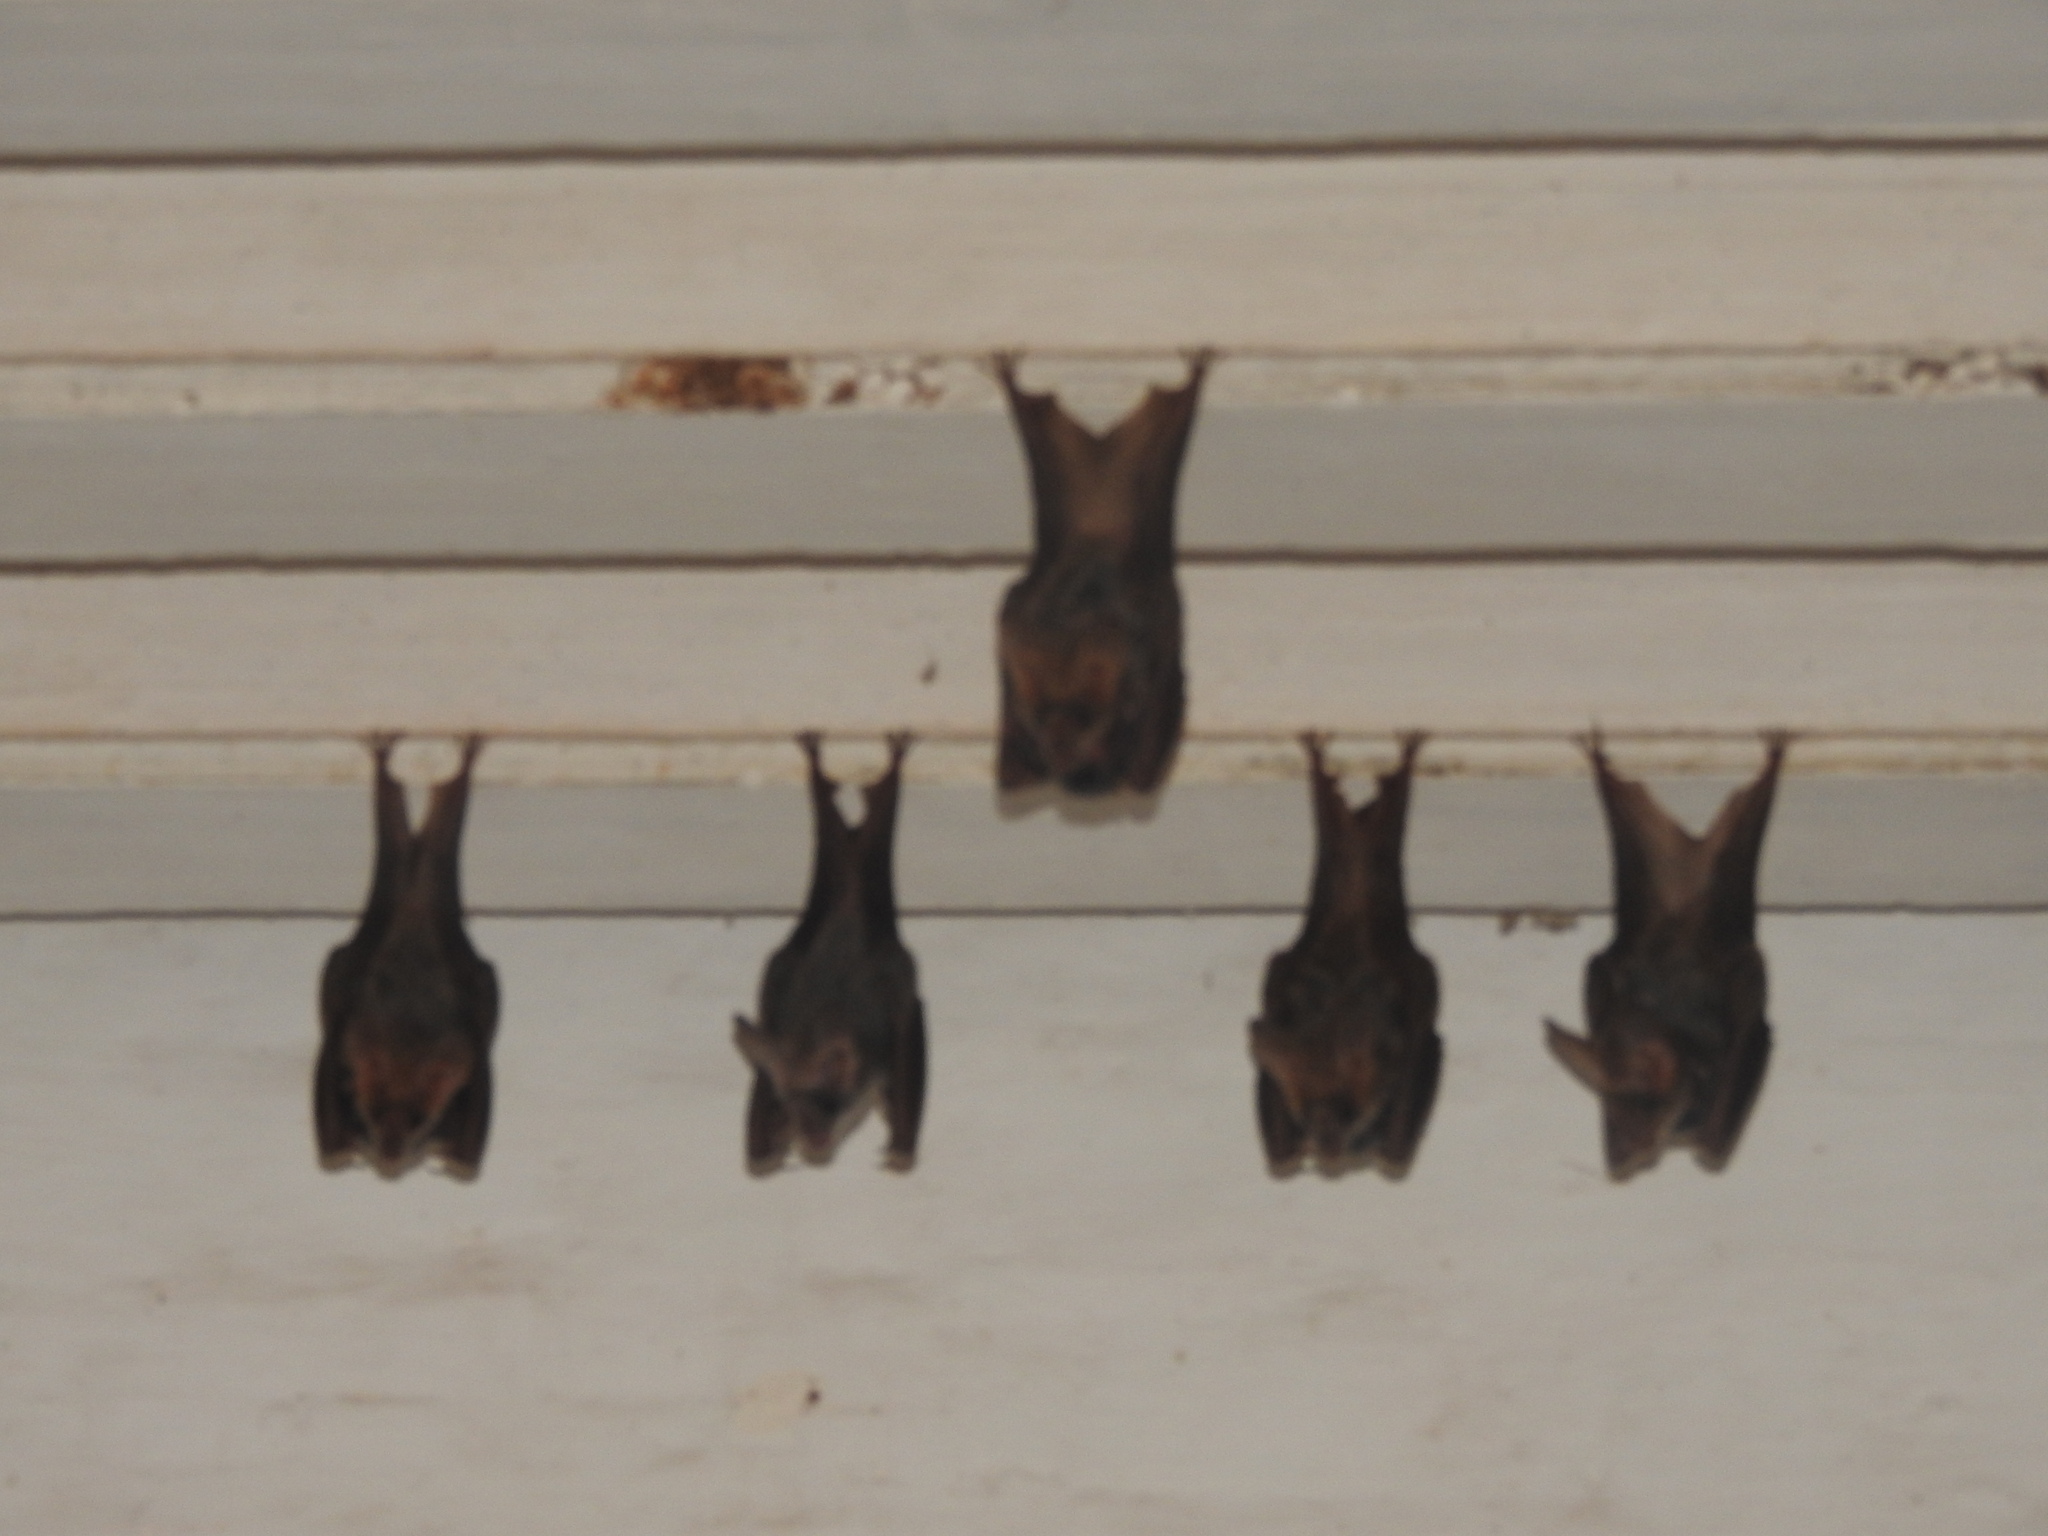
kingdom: Animalia
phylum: Chordata
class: Mammalia
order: Chiroptera
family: Megadermatidae
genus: Lyroderma
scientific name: Lyroderma lyra
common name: Greater false vampire bat
